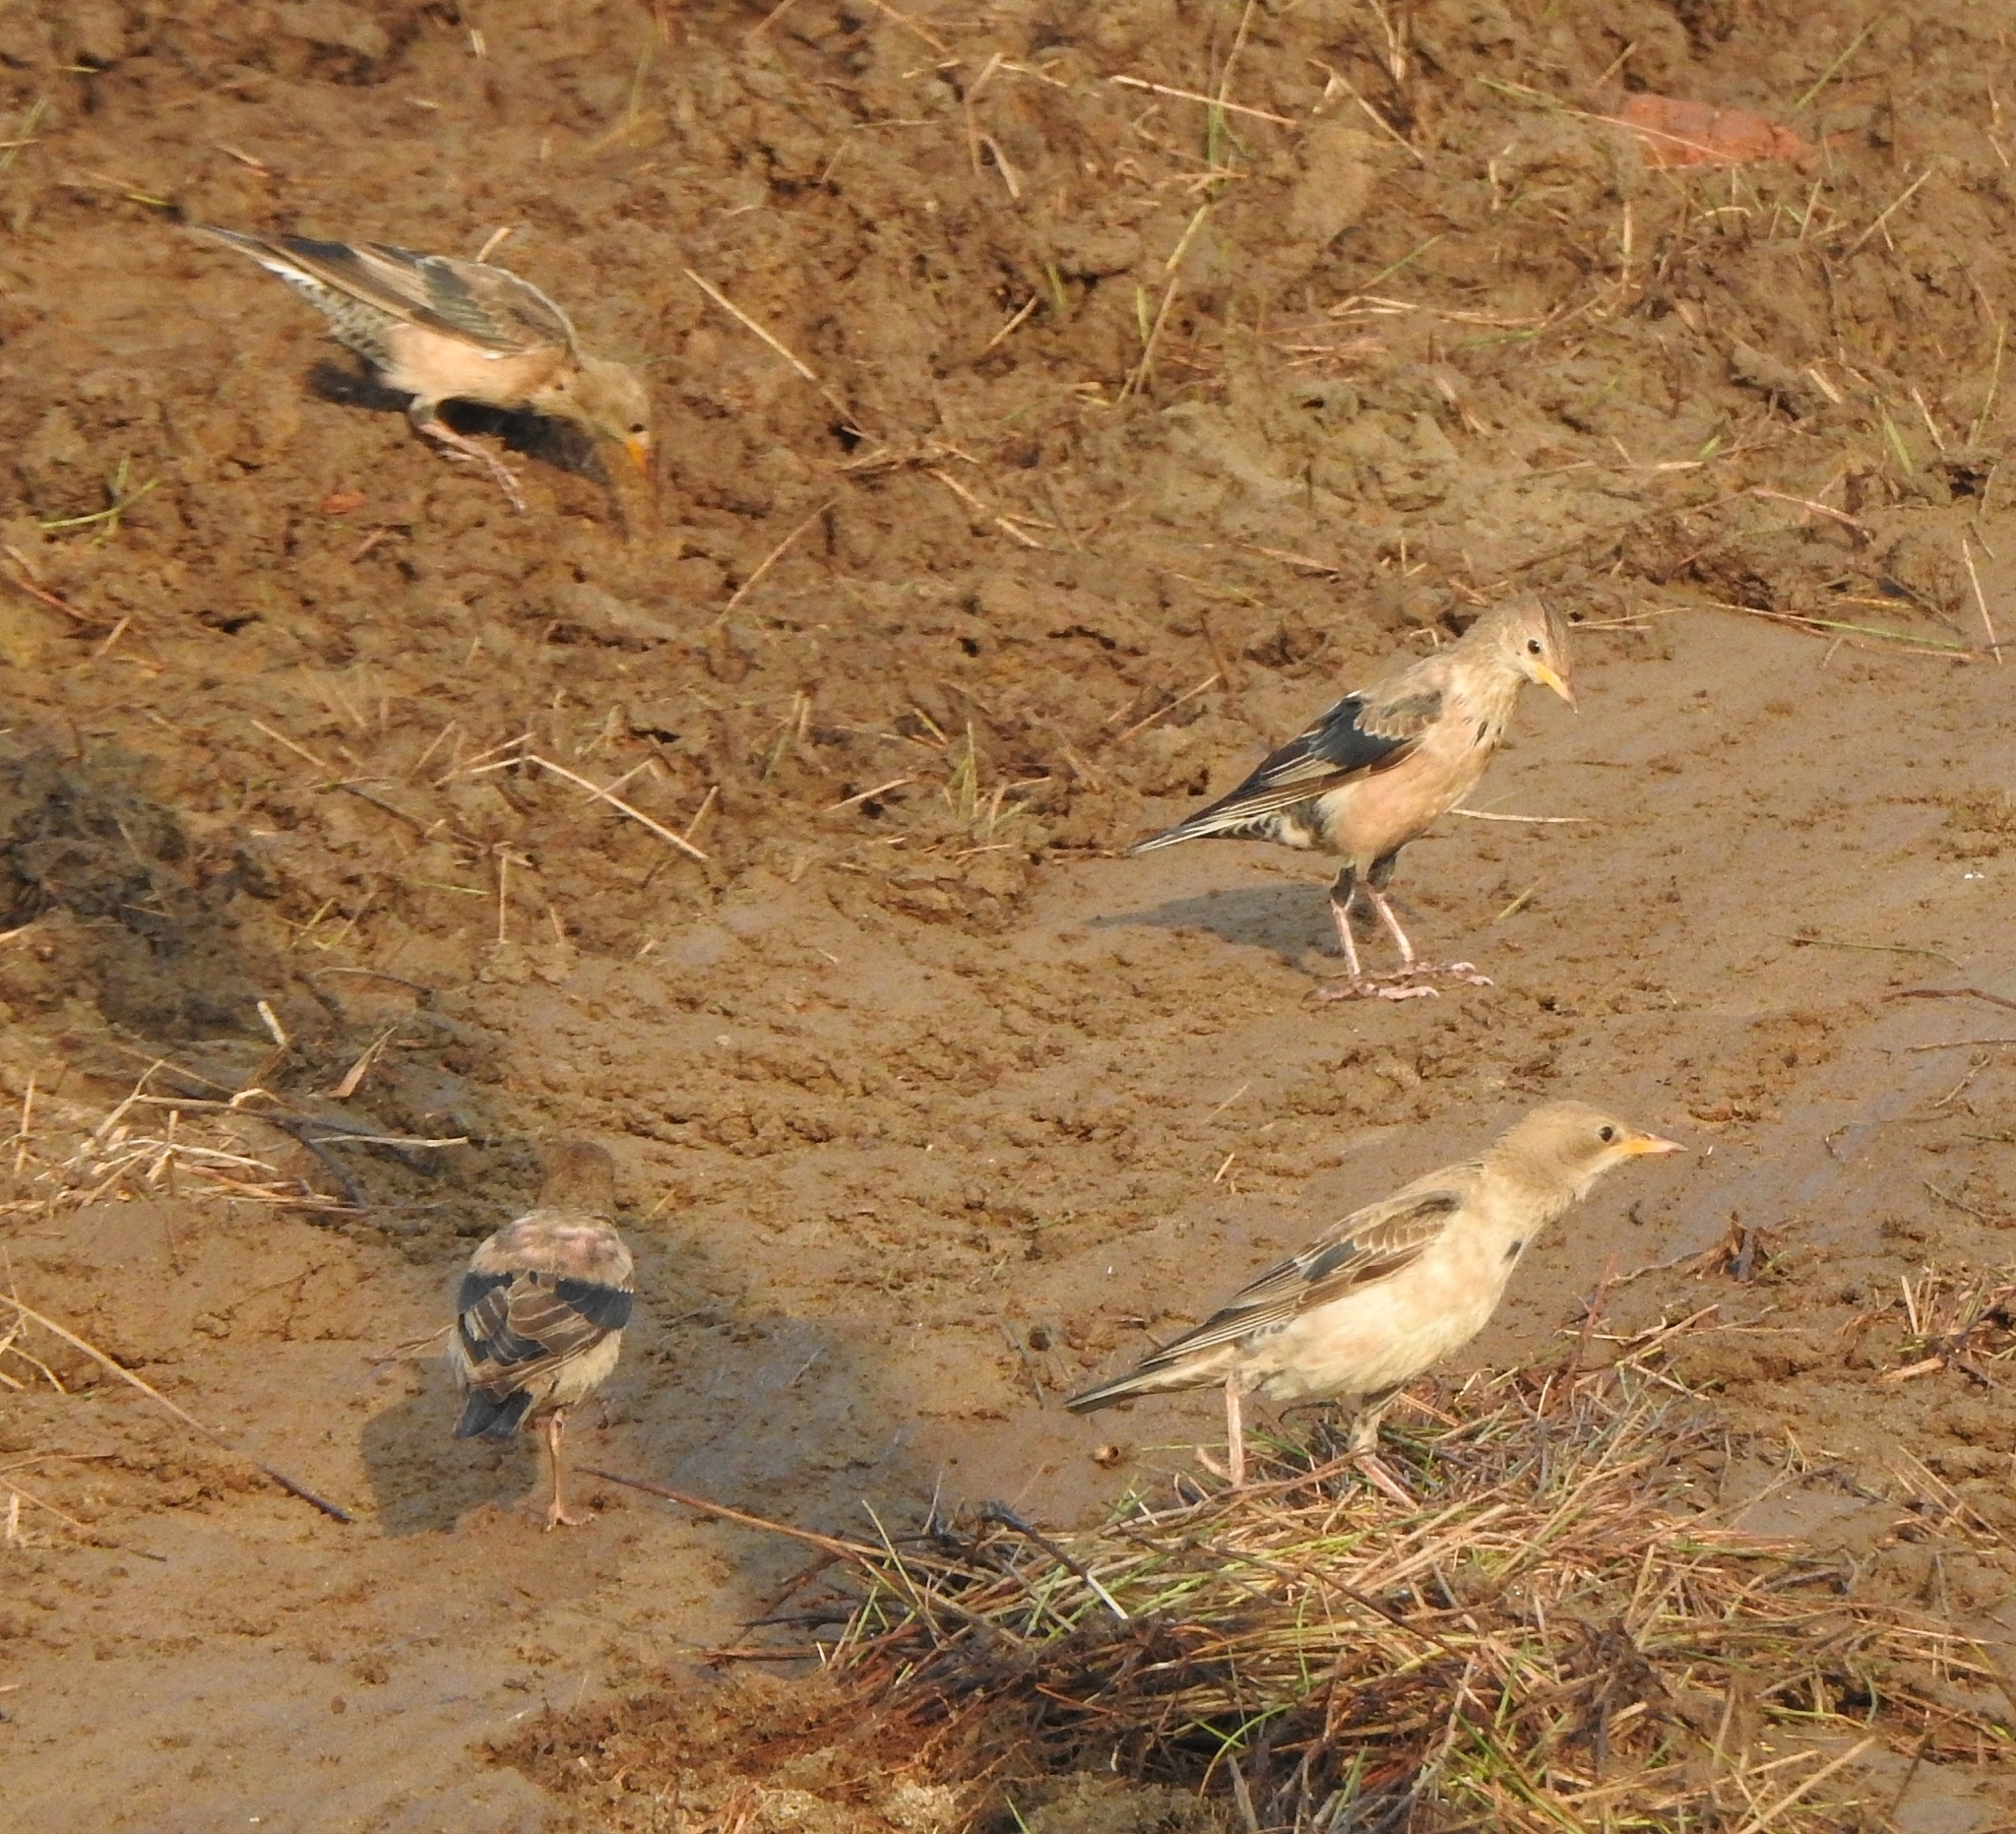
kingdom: Animalia
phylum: Chordata
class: Aves
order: Passeriformes
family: Sturnidae
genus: Pastor
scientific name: Pastor roseus
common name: Rosy starling
